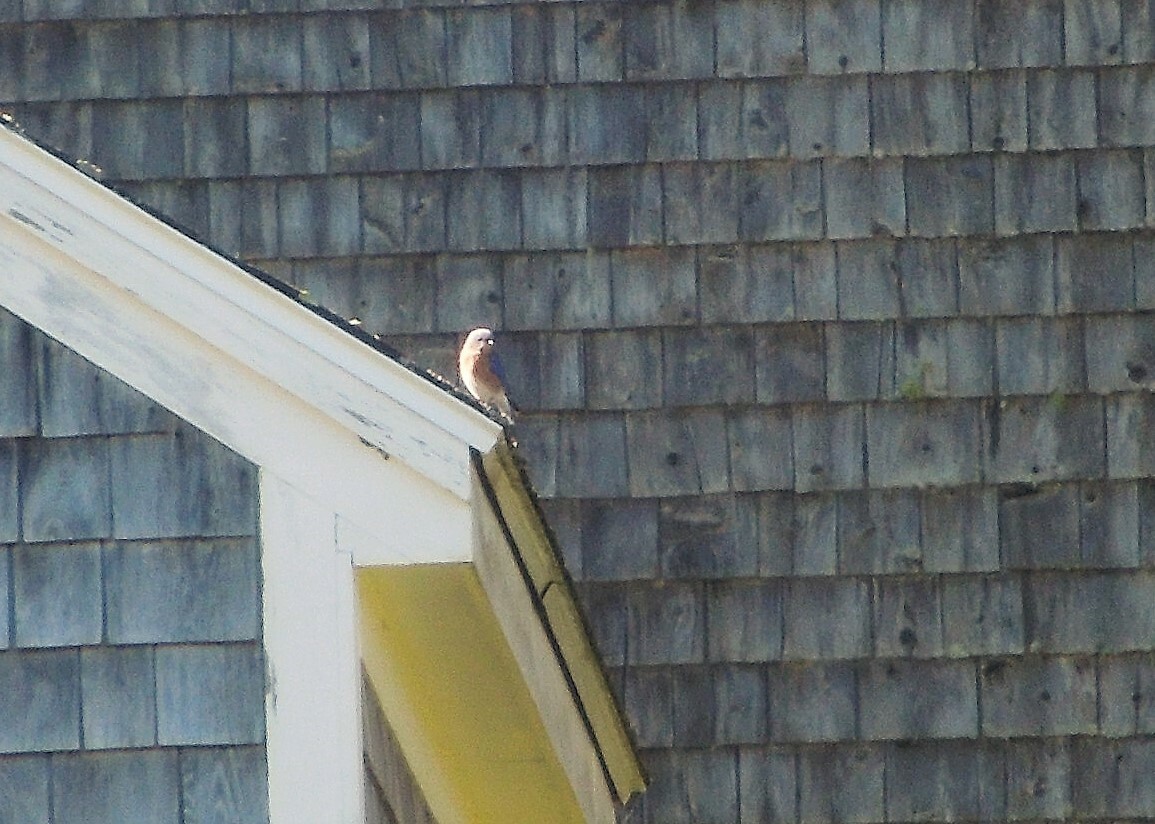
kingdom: Animalia
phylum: Chordata
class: Aves
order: Passeriformes
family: Turdidae
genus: Sialia
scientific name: Sialia sialis
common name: Eastern bluebird
